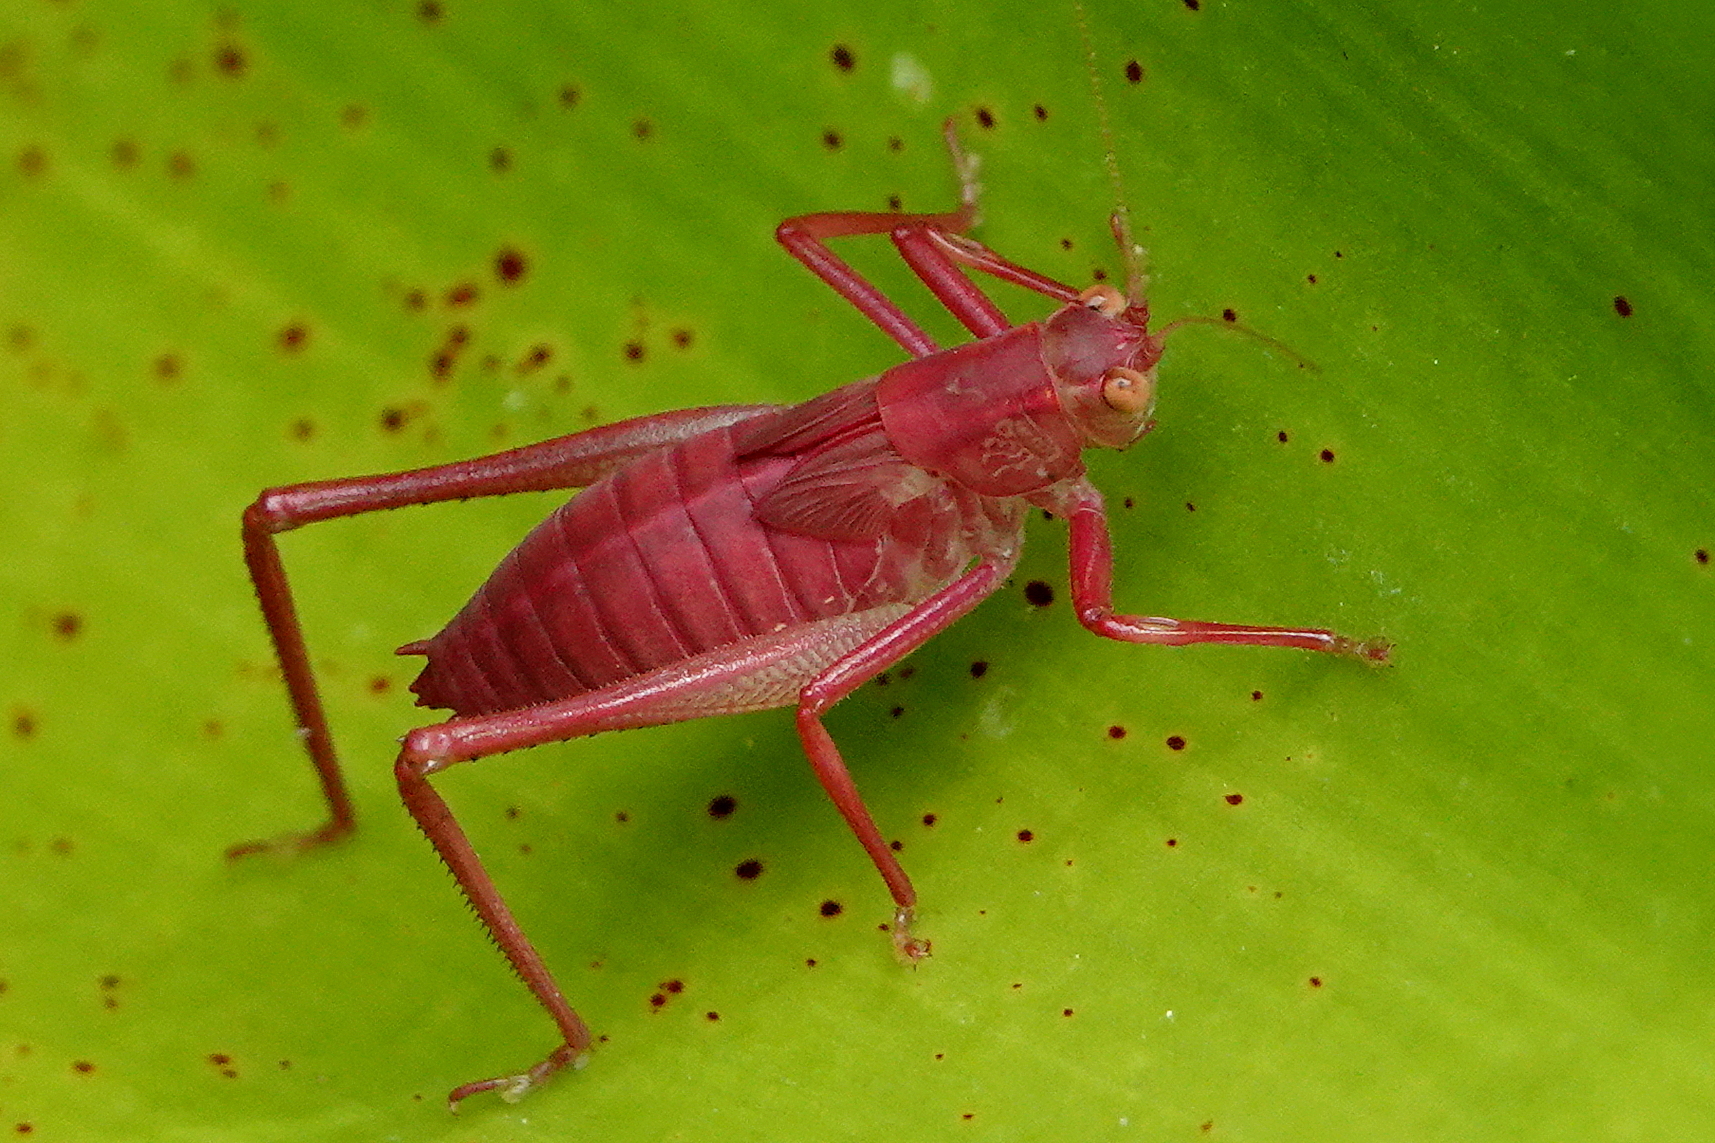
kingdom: Animalia
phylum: Arthropoda
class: Insecta
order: Orthoptera
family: Tettigoniidae
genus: Caedicia
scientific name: Caedicia simplex
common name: Common garden katydid
